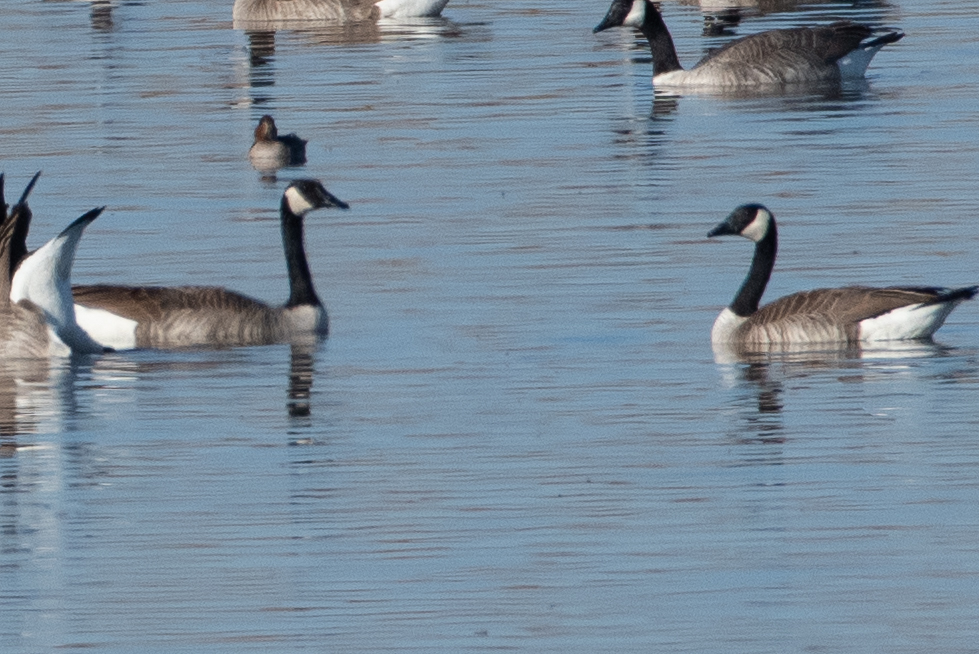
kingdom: Animalia
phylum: Chordata
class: Aves
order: Anseriformes
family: Anatidae
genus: Branta
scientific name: Branta canadensis
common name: Canada goose
